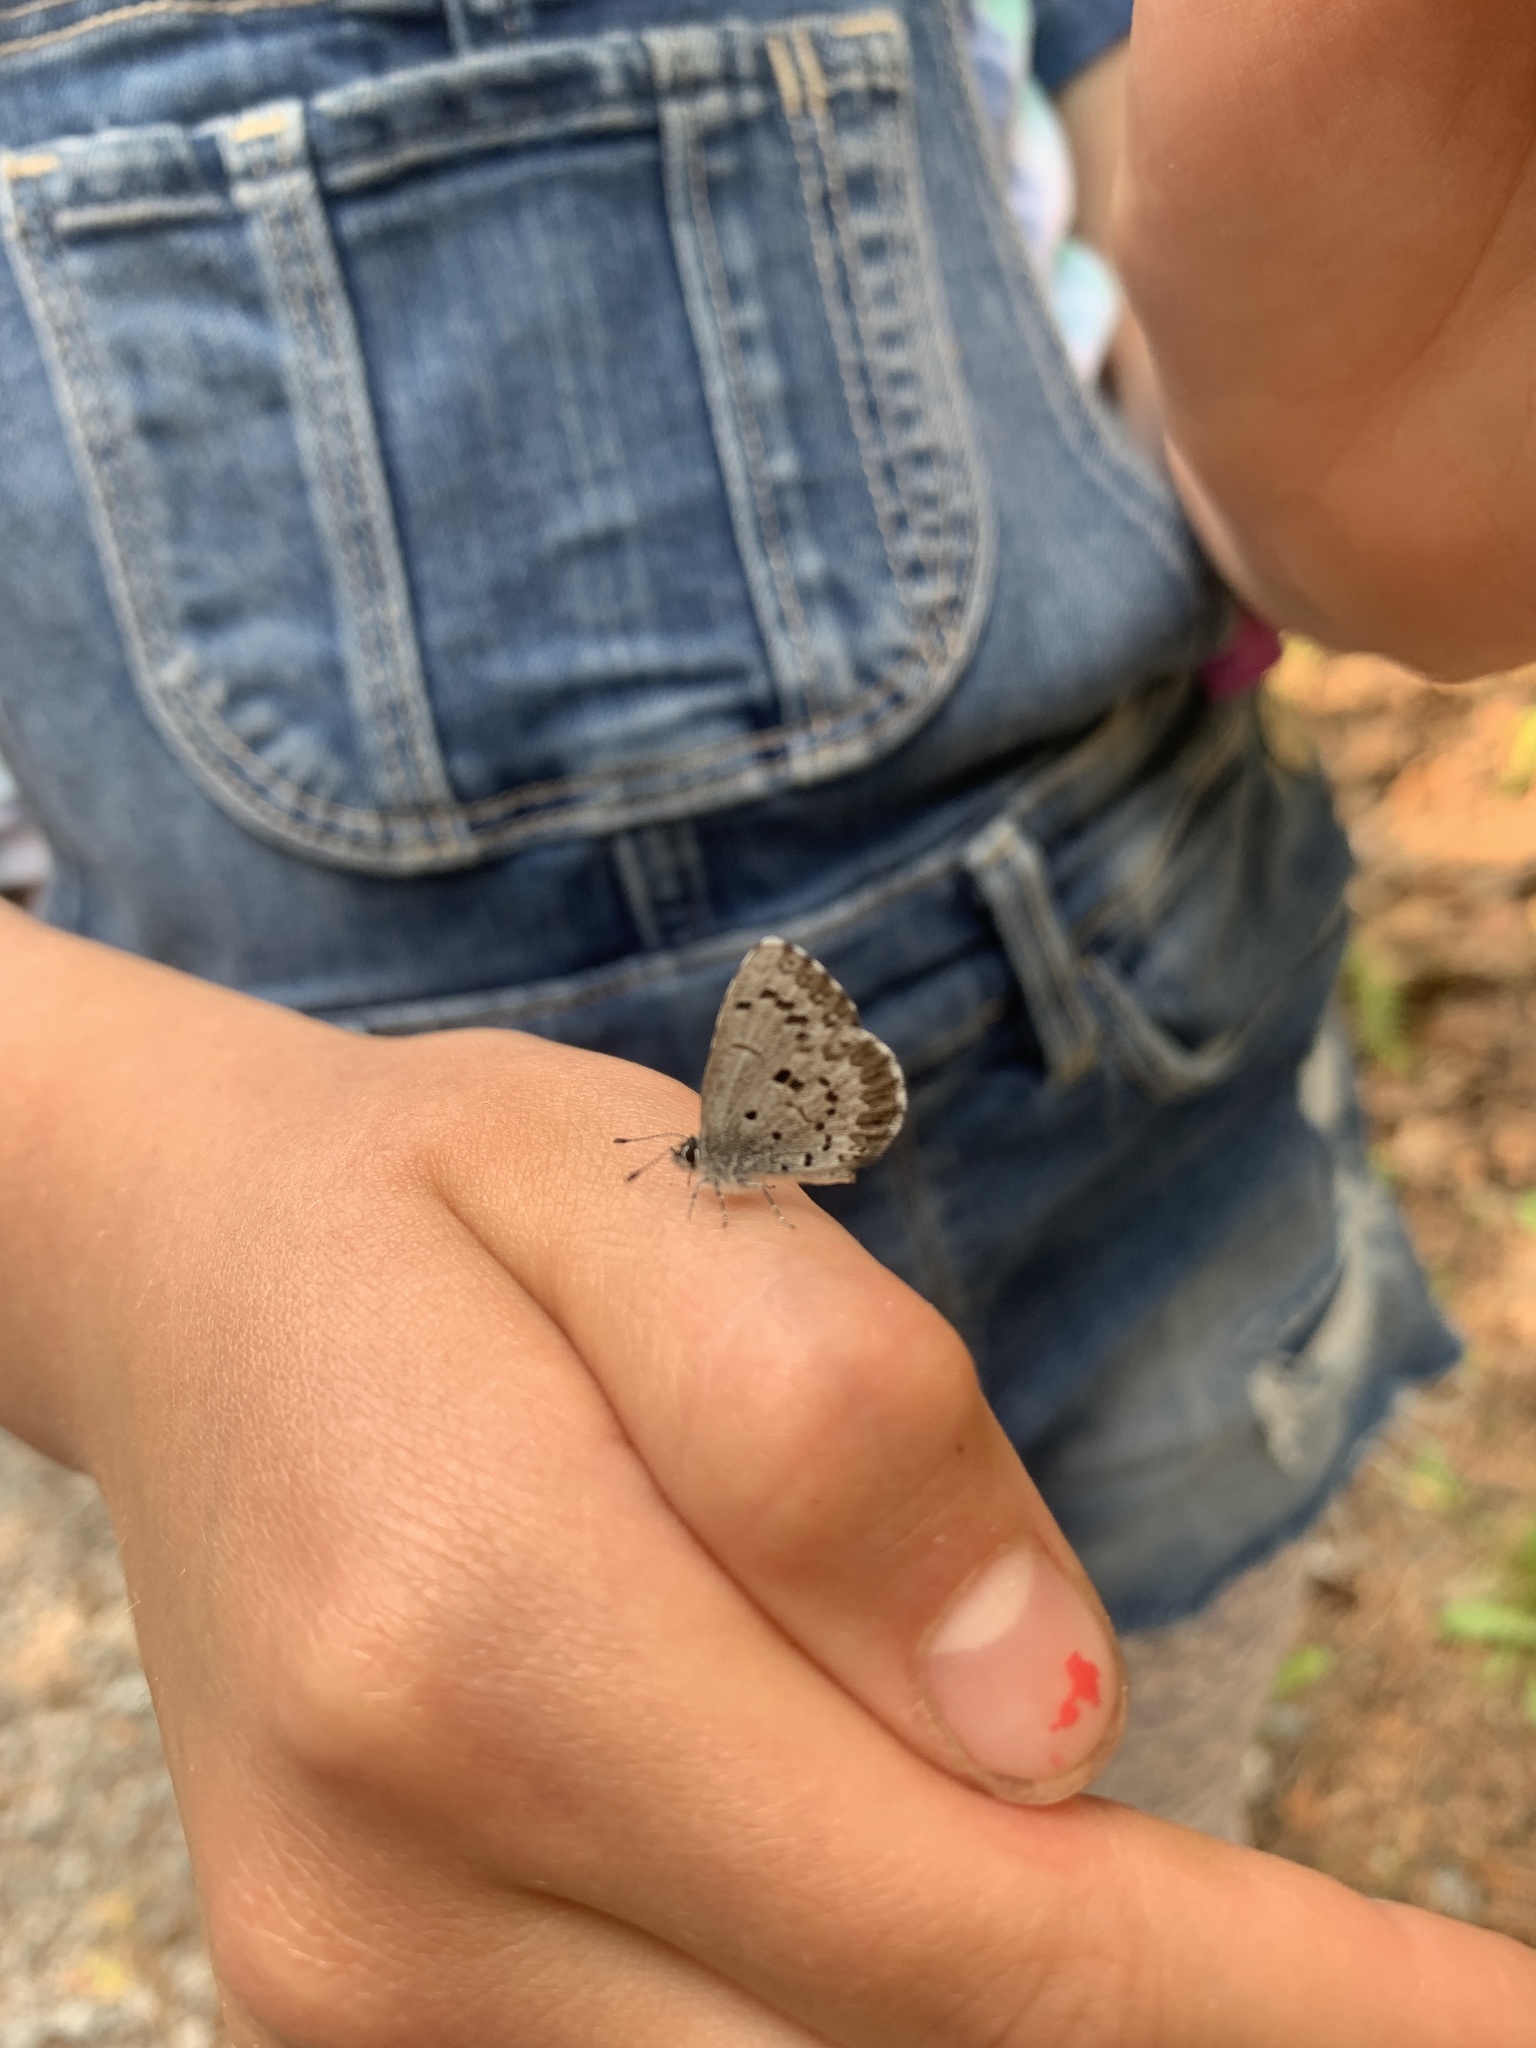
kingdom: Animalia
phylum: Arthropoda
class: Insecta
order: Lepidoptera
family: Lycaenidae
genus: Celastrina
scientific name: Celastrina lucia
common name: Lucia azure
